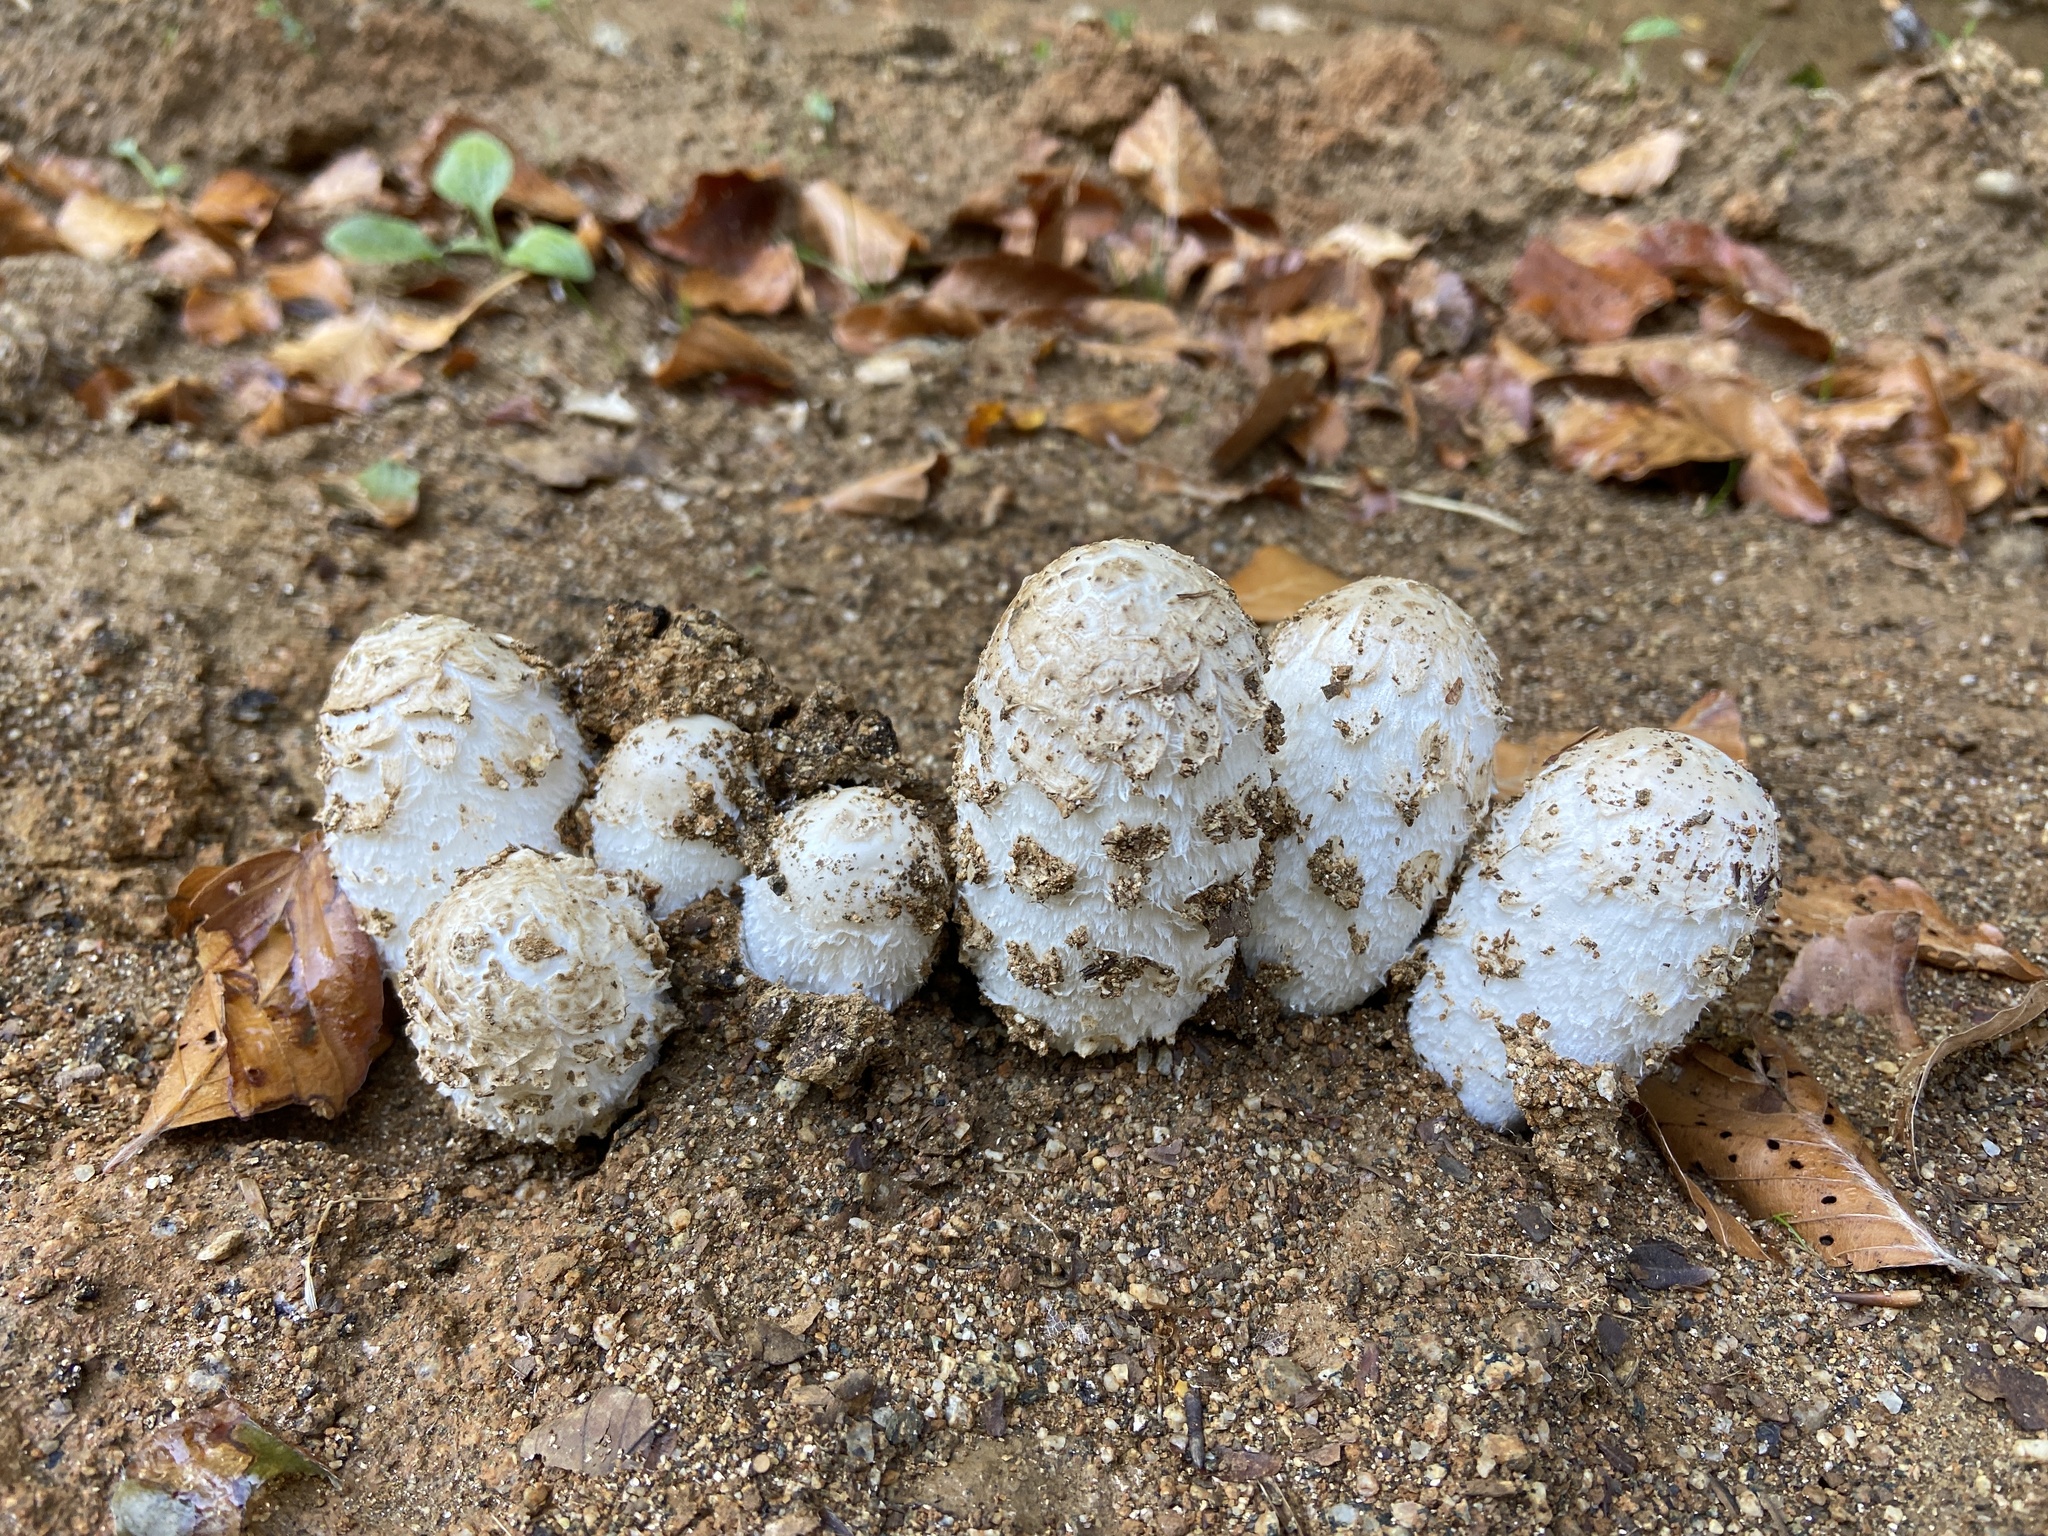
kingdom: Fungi
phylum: Basidiomycota
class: Agaricomycetes
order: Agaricales
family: Agaricaceae
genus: Coprinus
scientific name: Coprinus comatus
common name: Lawyer's wig
